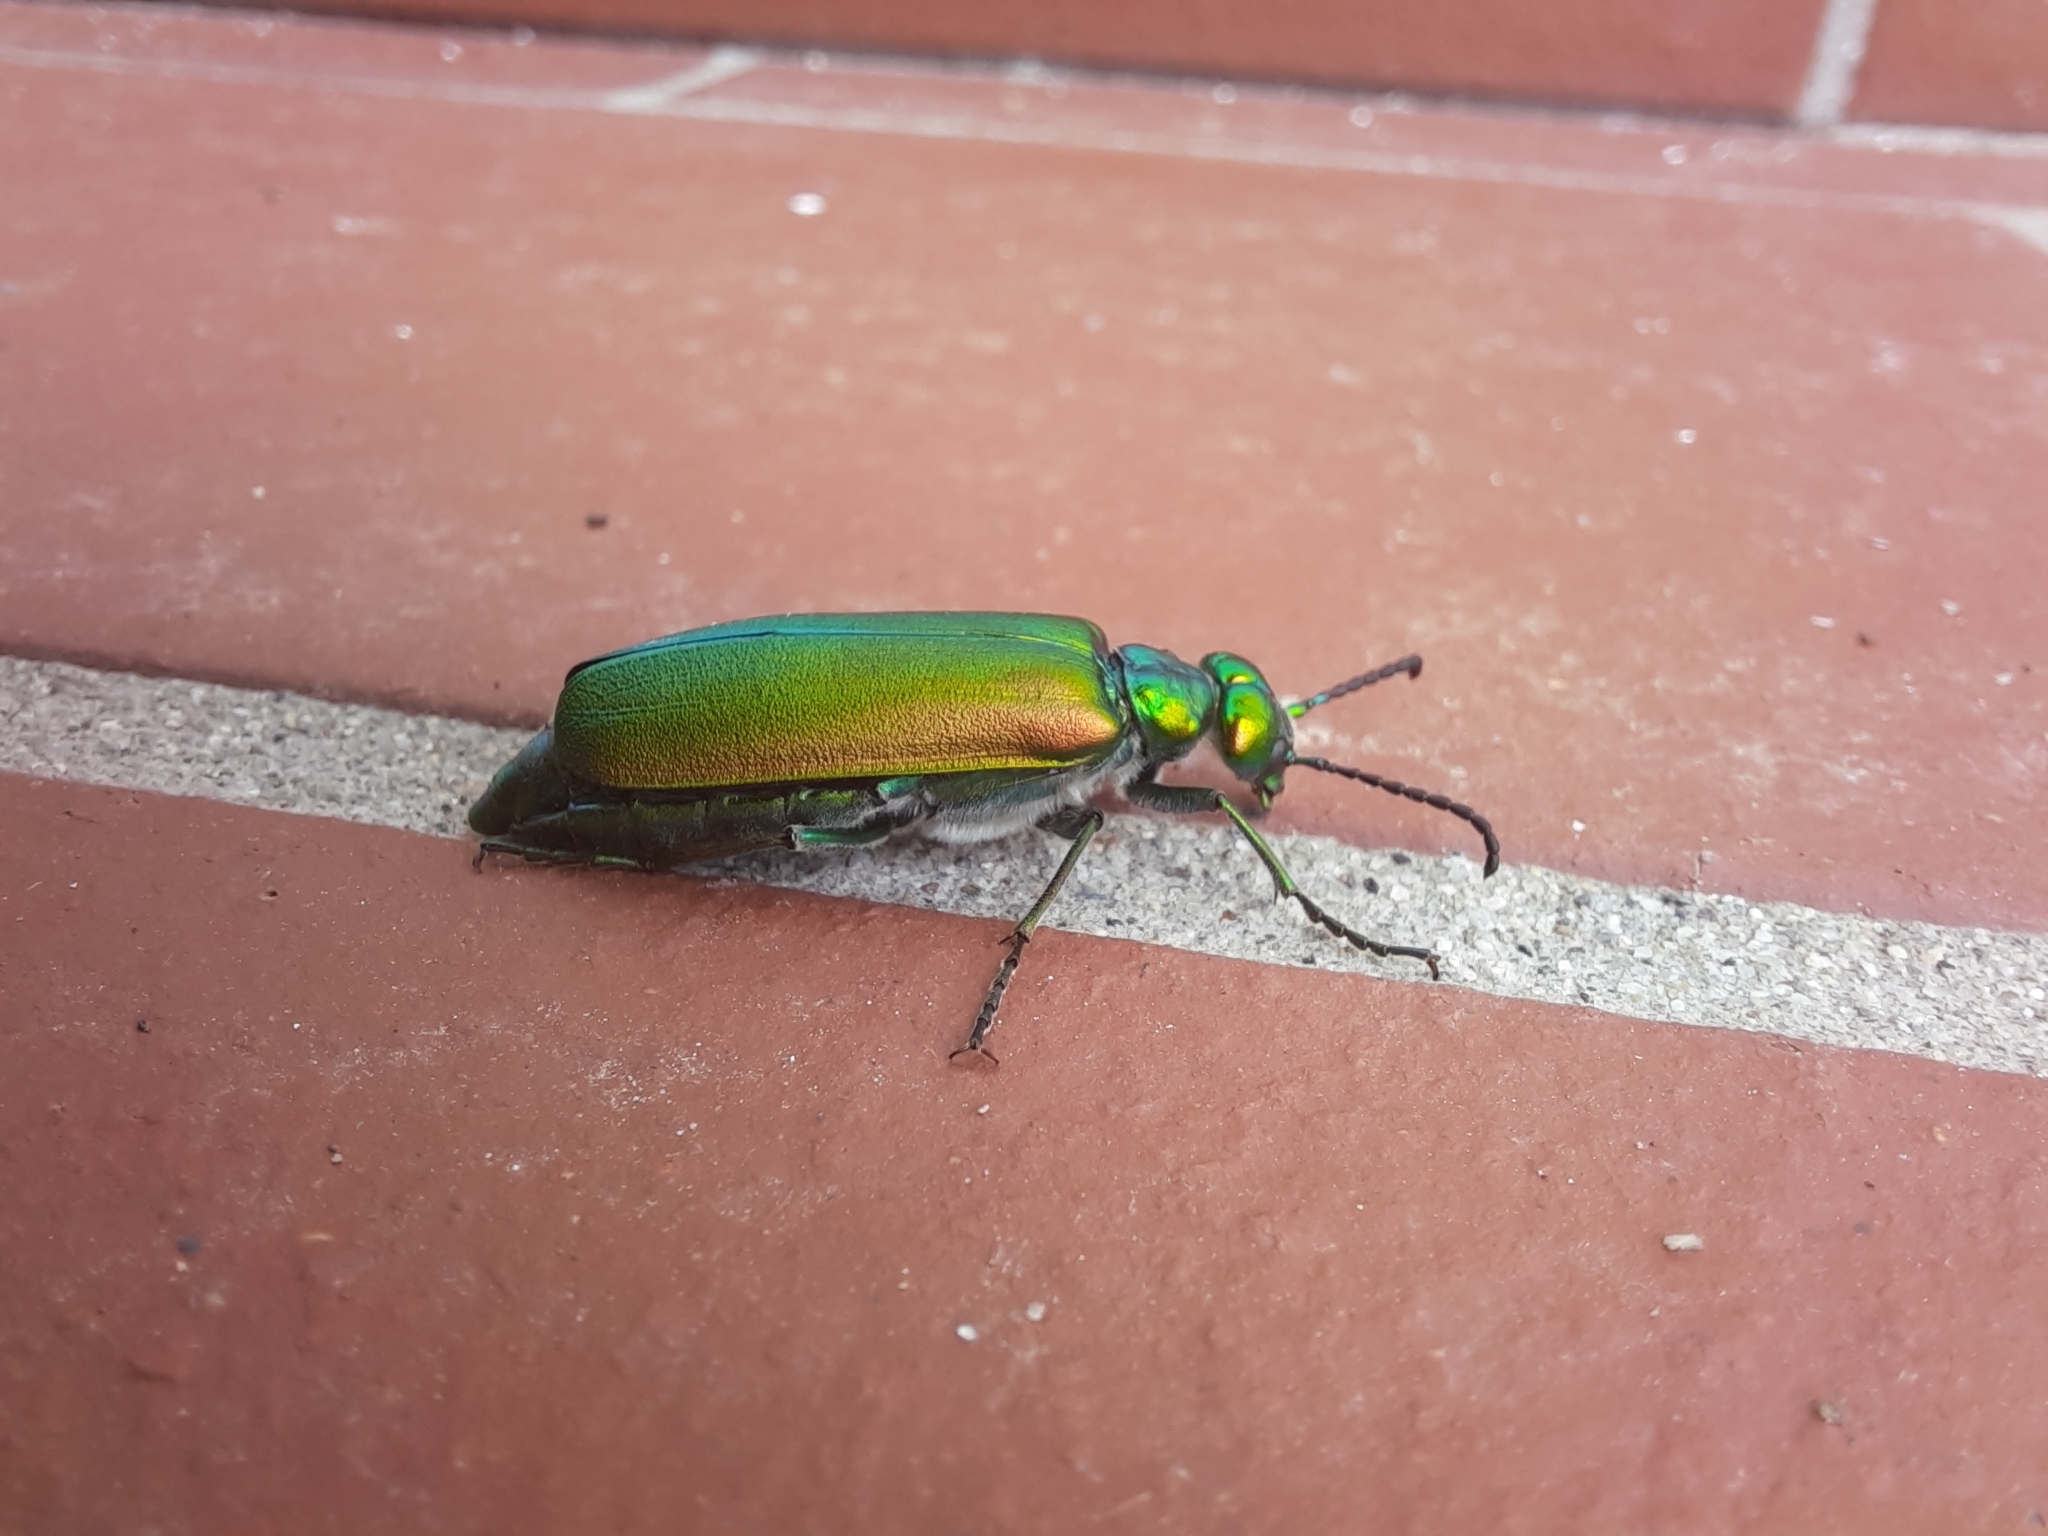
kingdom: Animalia
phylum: Arthropoda
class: Insecta
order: Coleoptera
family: Meloidae
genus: Lytta
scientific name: Lytta vesicatoria
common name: Spanish fly
